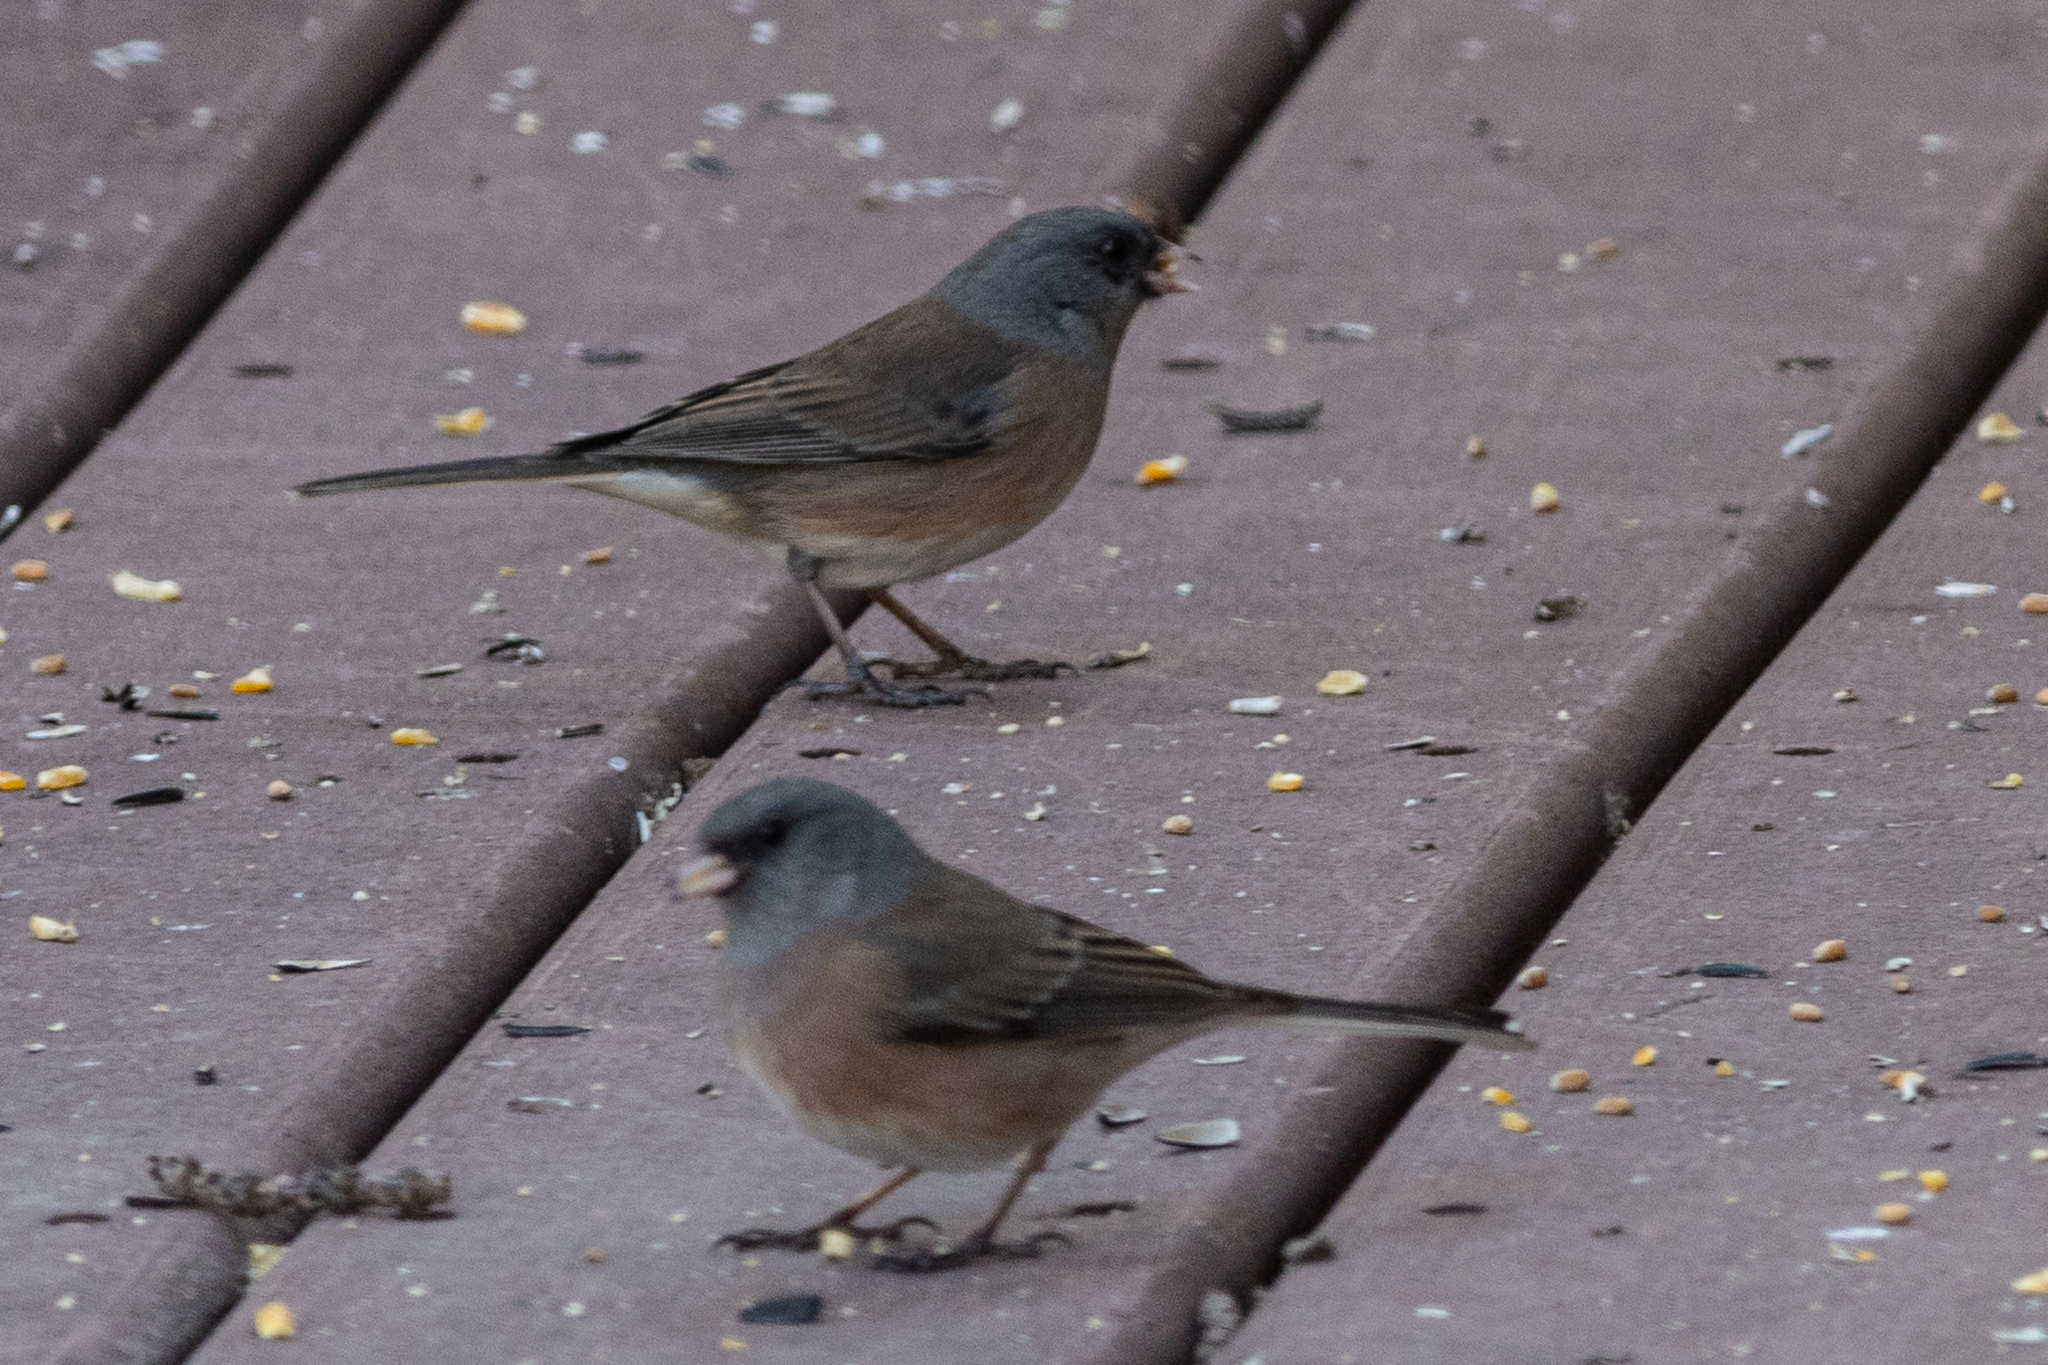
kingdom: Animalia
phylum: Chordata
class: Aves
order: Passeriformes
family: Passerellidae
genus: Junco
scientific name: Junco hyemalis
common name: Dark-eyed junco
